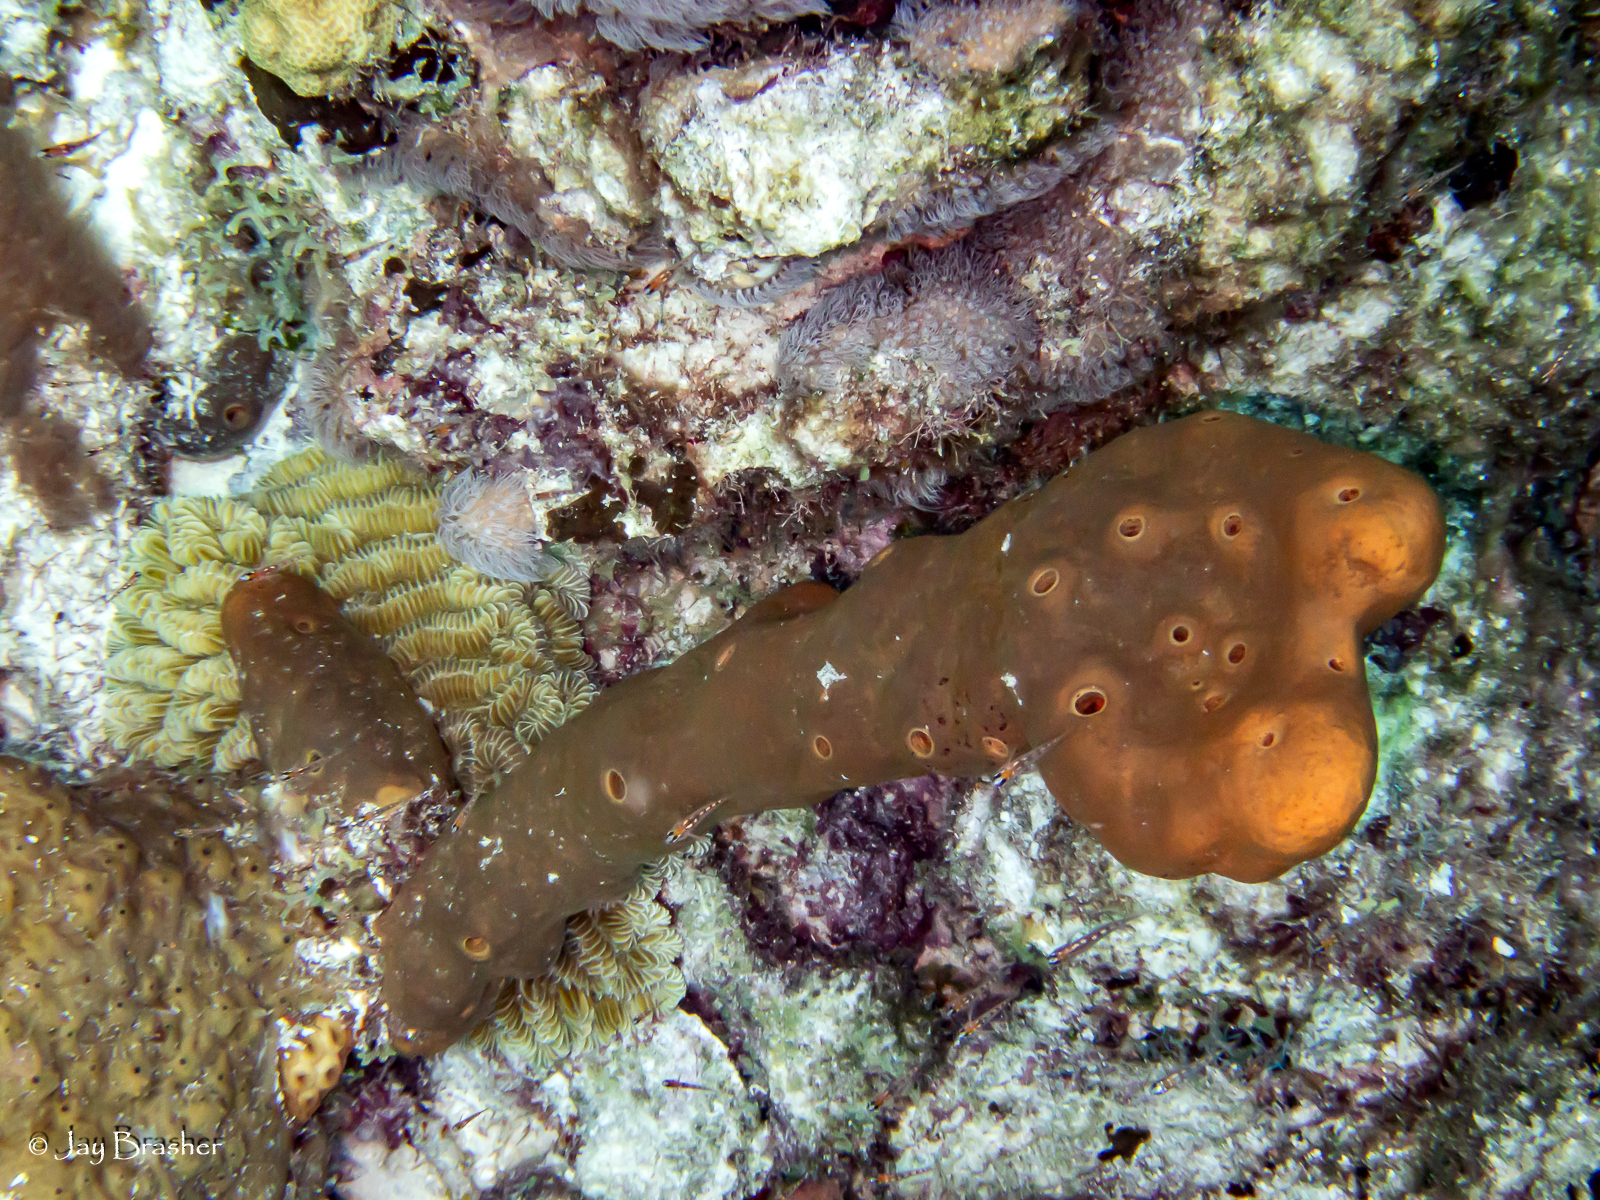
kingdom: Animalia
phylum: Porifera
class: Demospongiae
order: Agelasida
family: Agelasidae
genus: Agelas
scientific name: Agelas conifera
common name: Brown tube sponge
